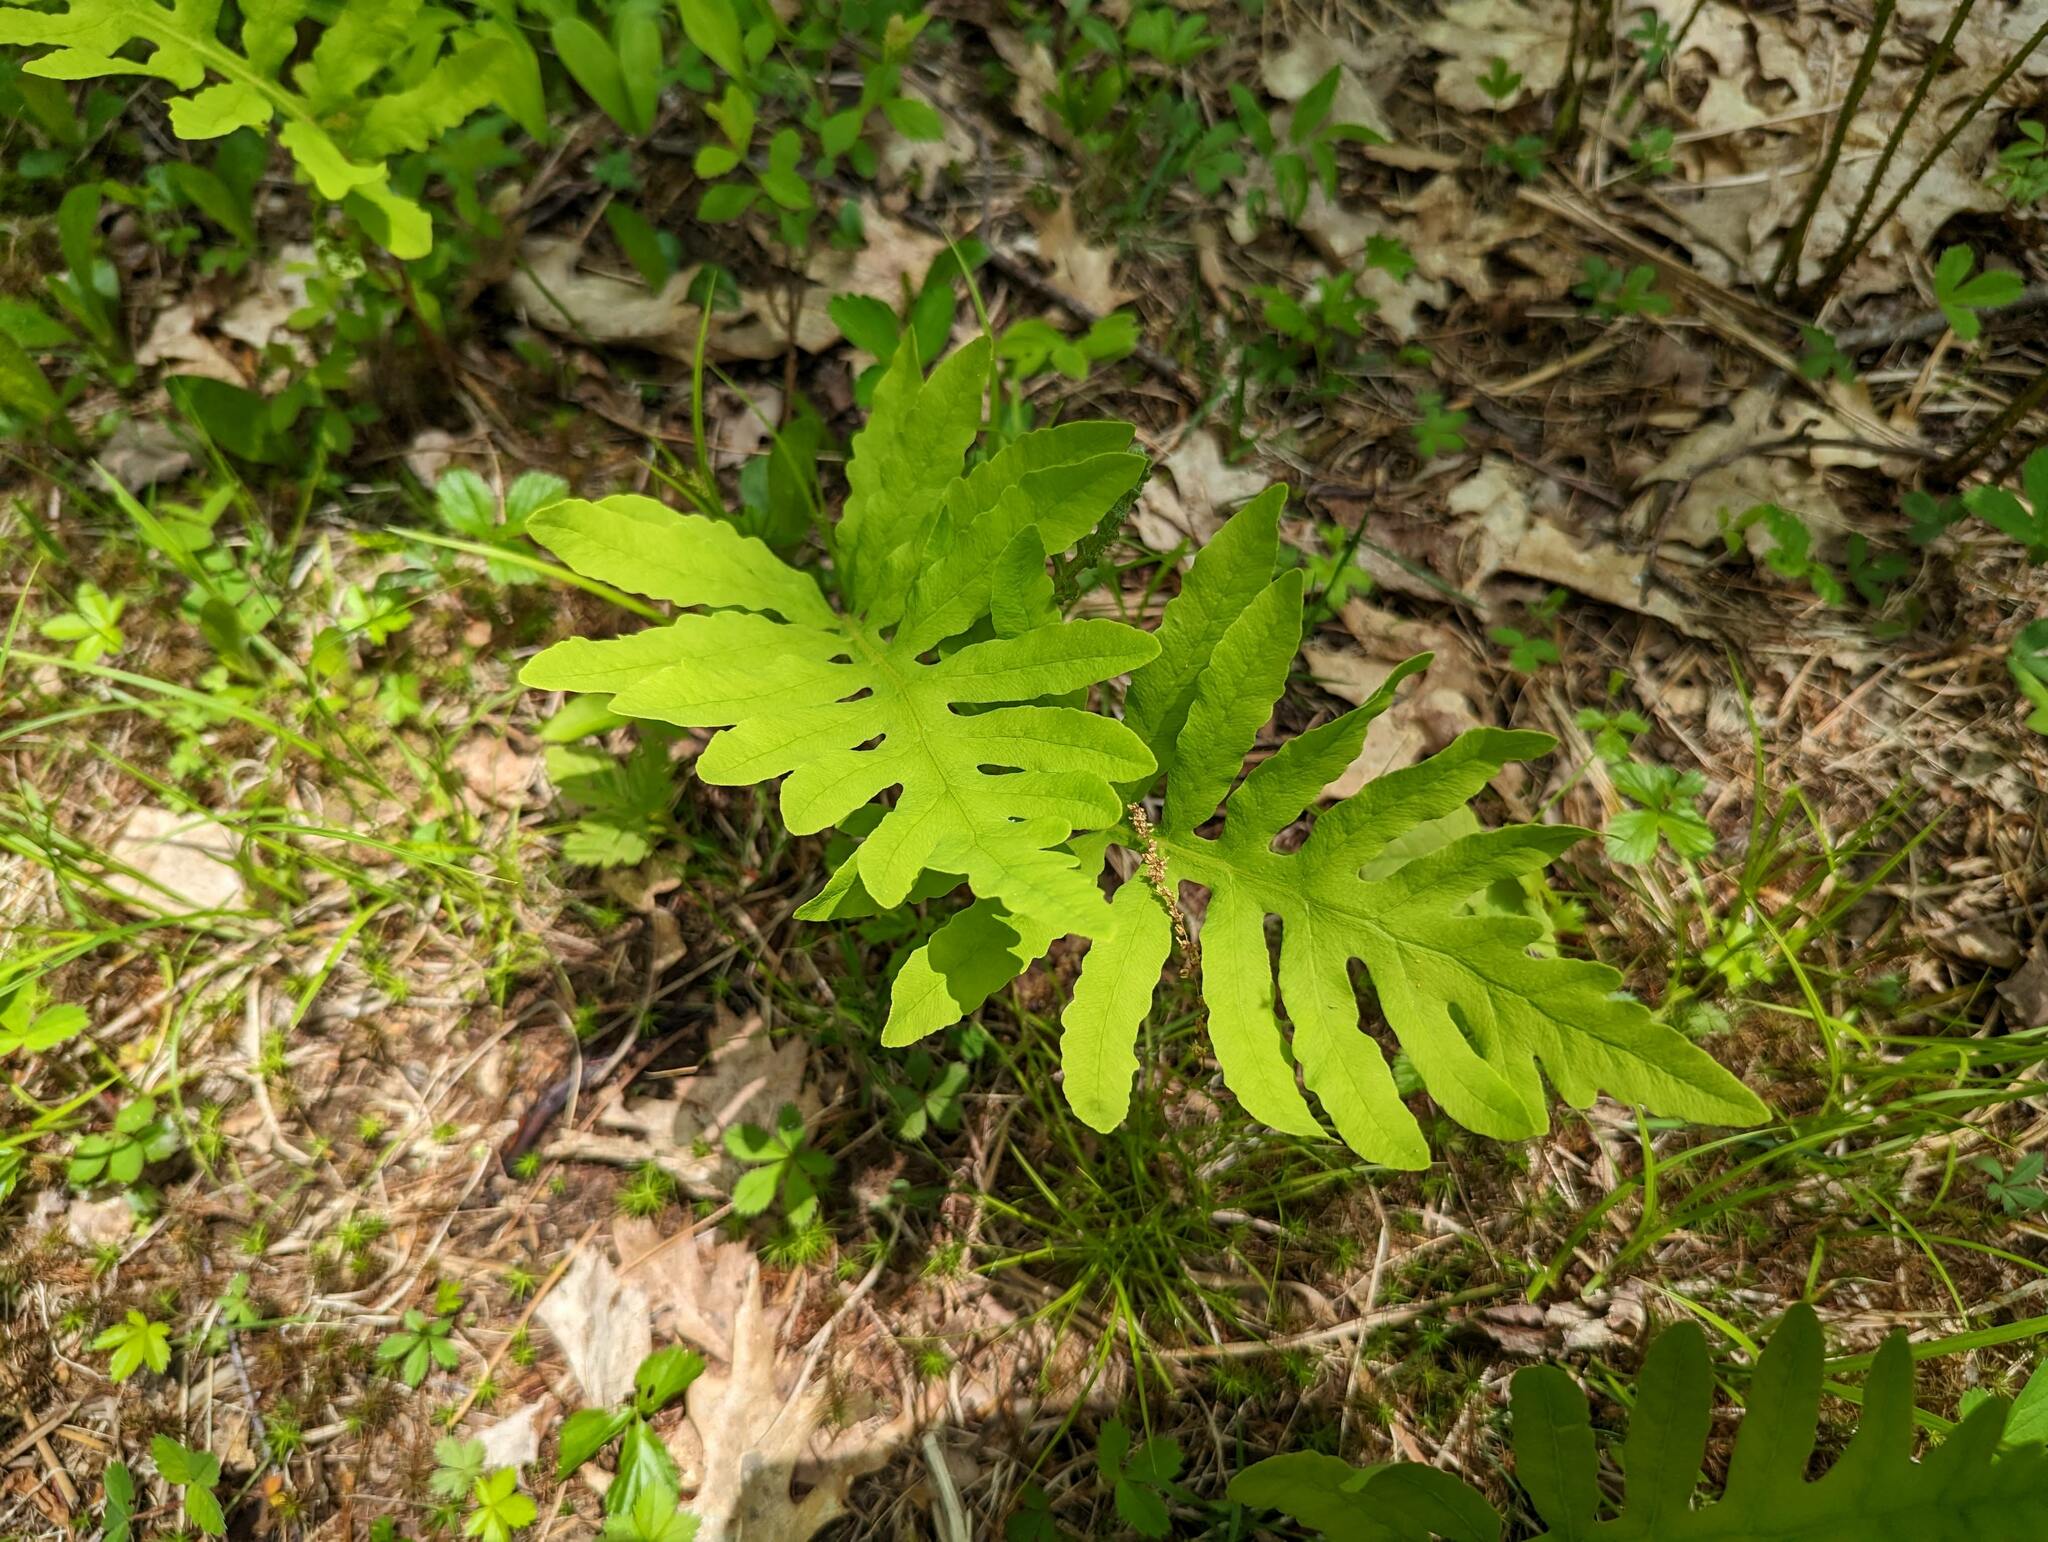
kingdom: Plantae
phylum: Tracheophyta
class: Polypodiopsida
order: Polypodiales
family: Onocleaceae
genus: Onoclea
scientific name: Onoclea sensibilis
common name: Sensitive fern
